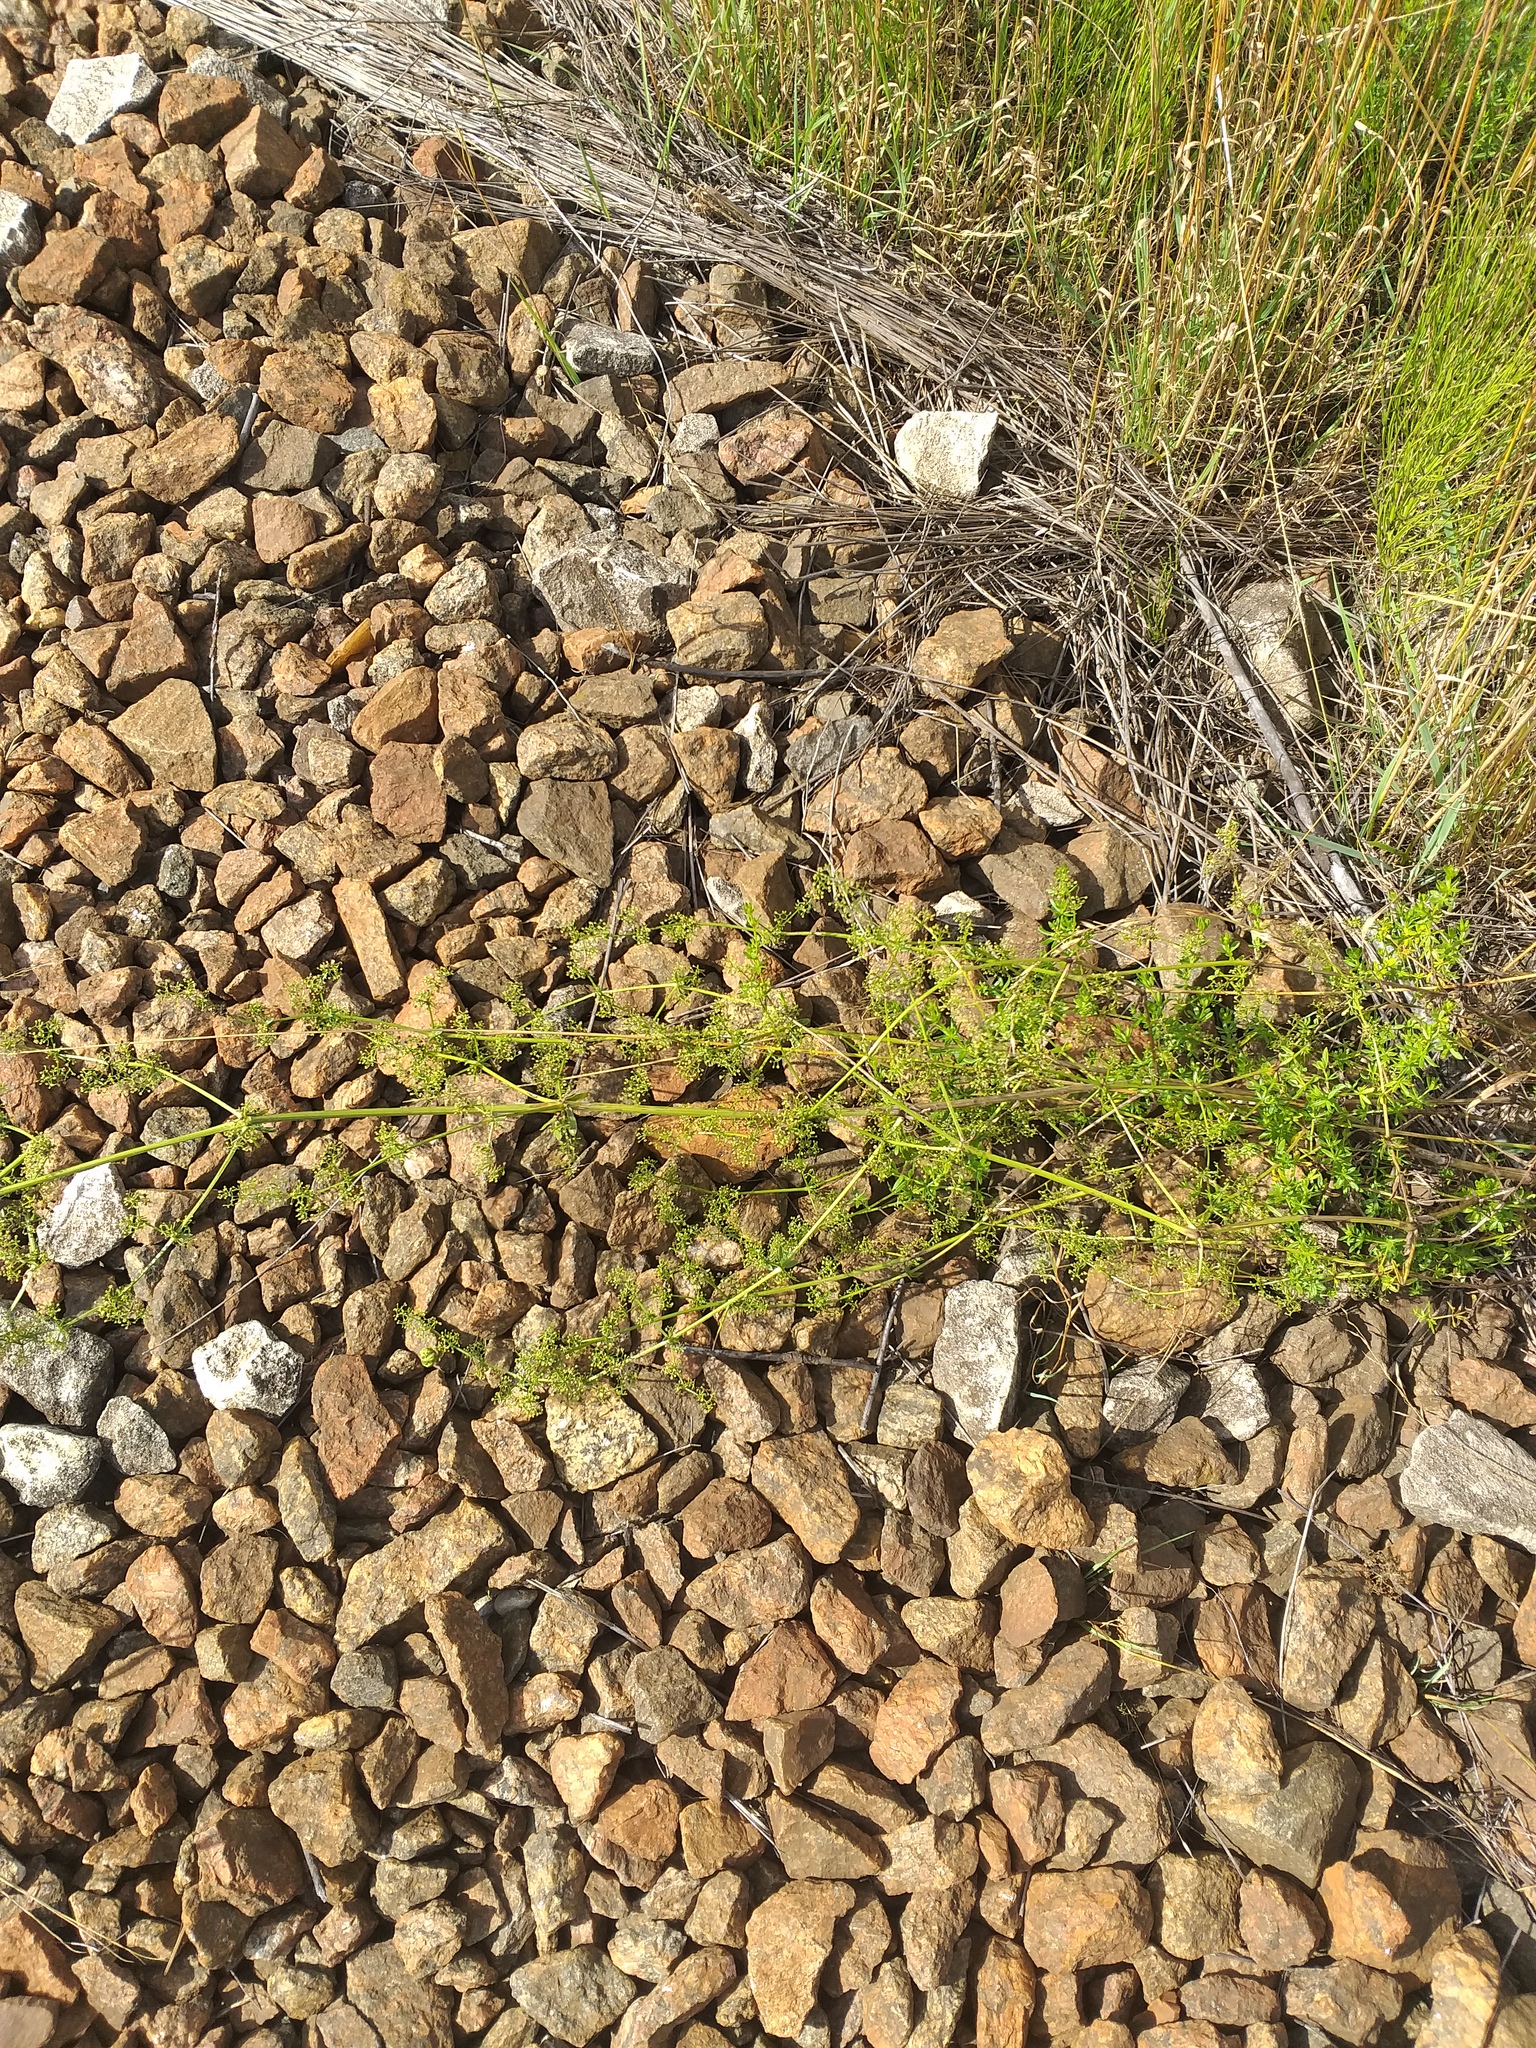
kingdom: Plantae
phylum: Tracheophyta
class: Magnoliopsida
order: Gentianales
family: Rubiaceae
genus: Galium
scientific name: Galium mollugo
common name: Hedge bedstraw
